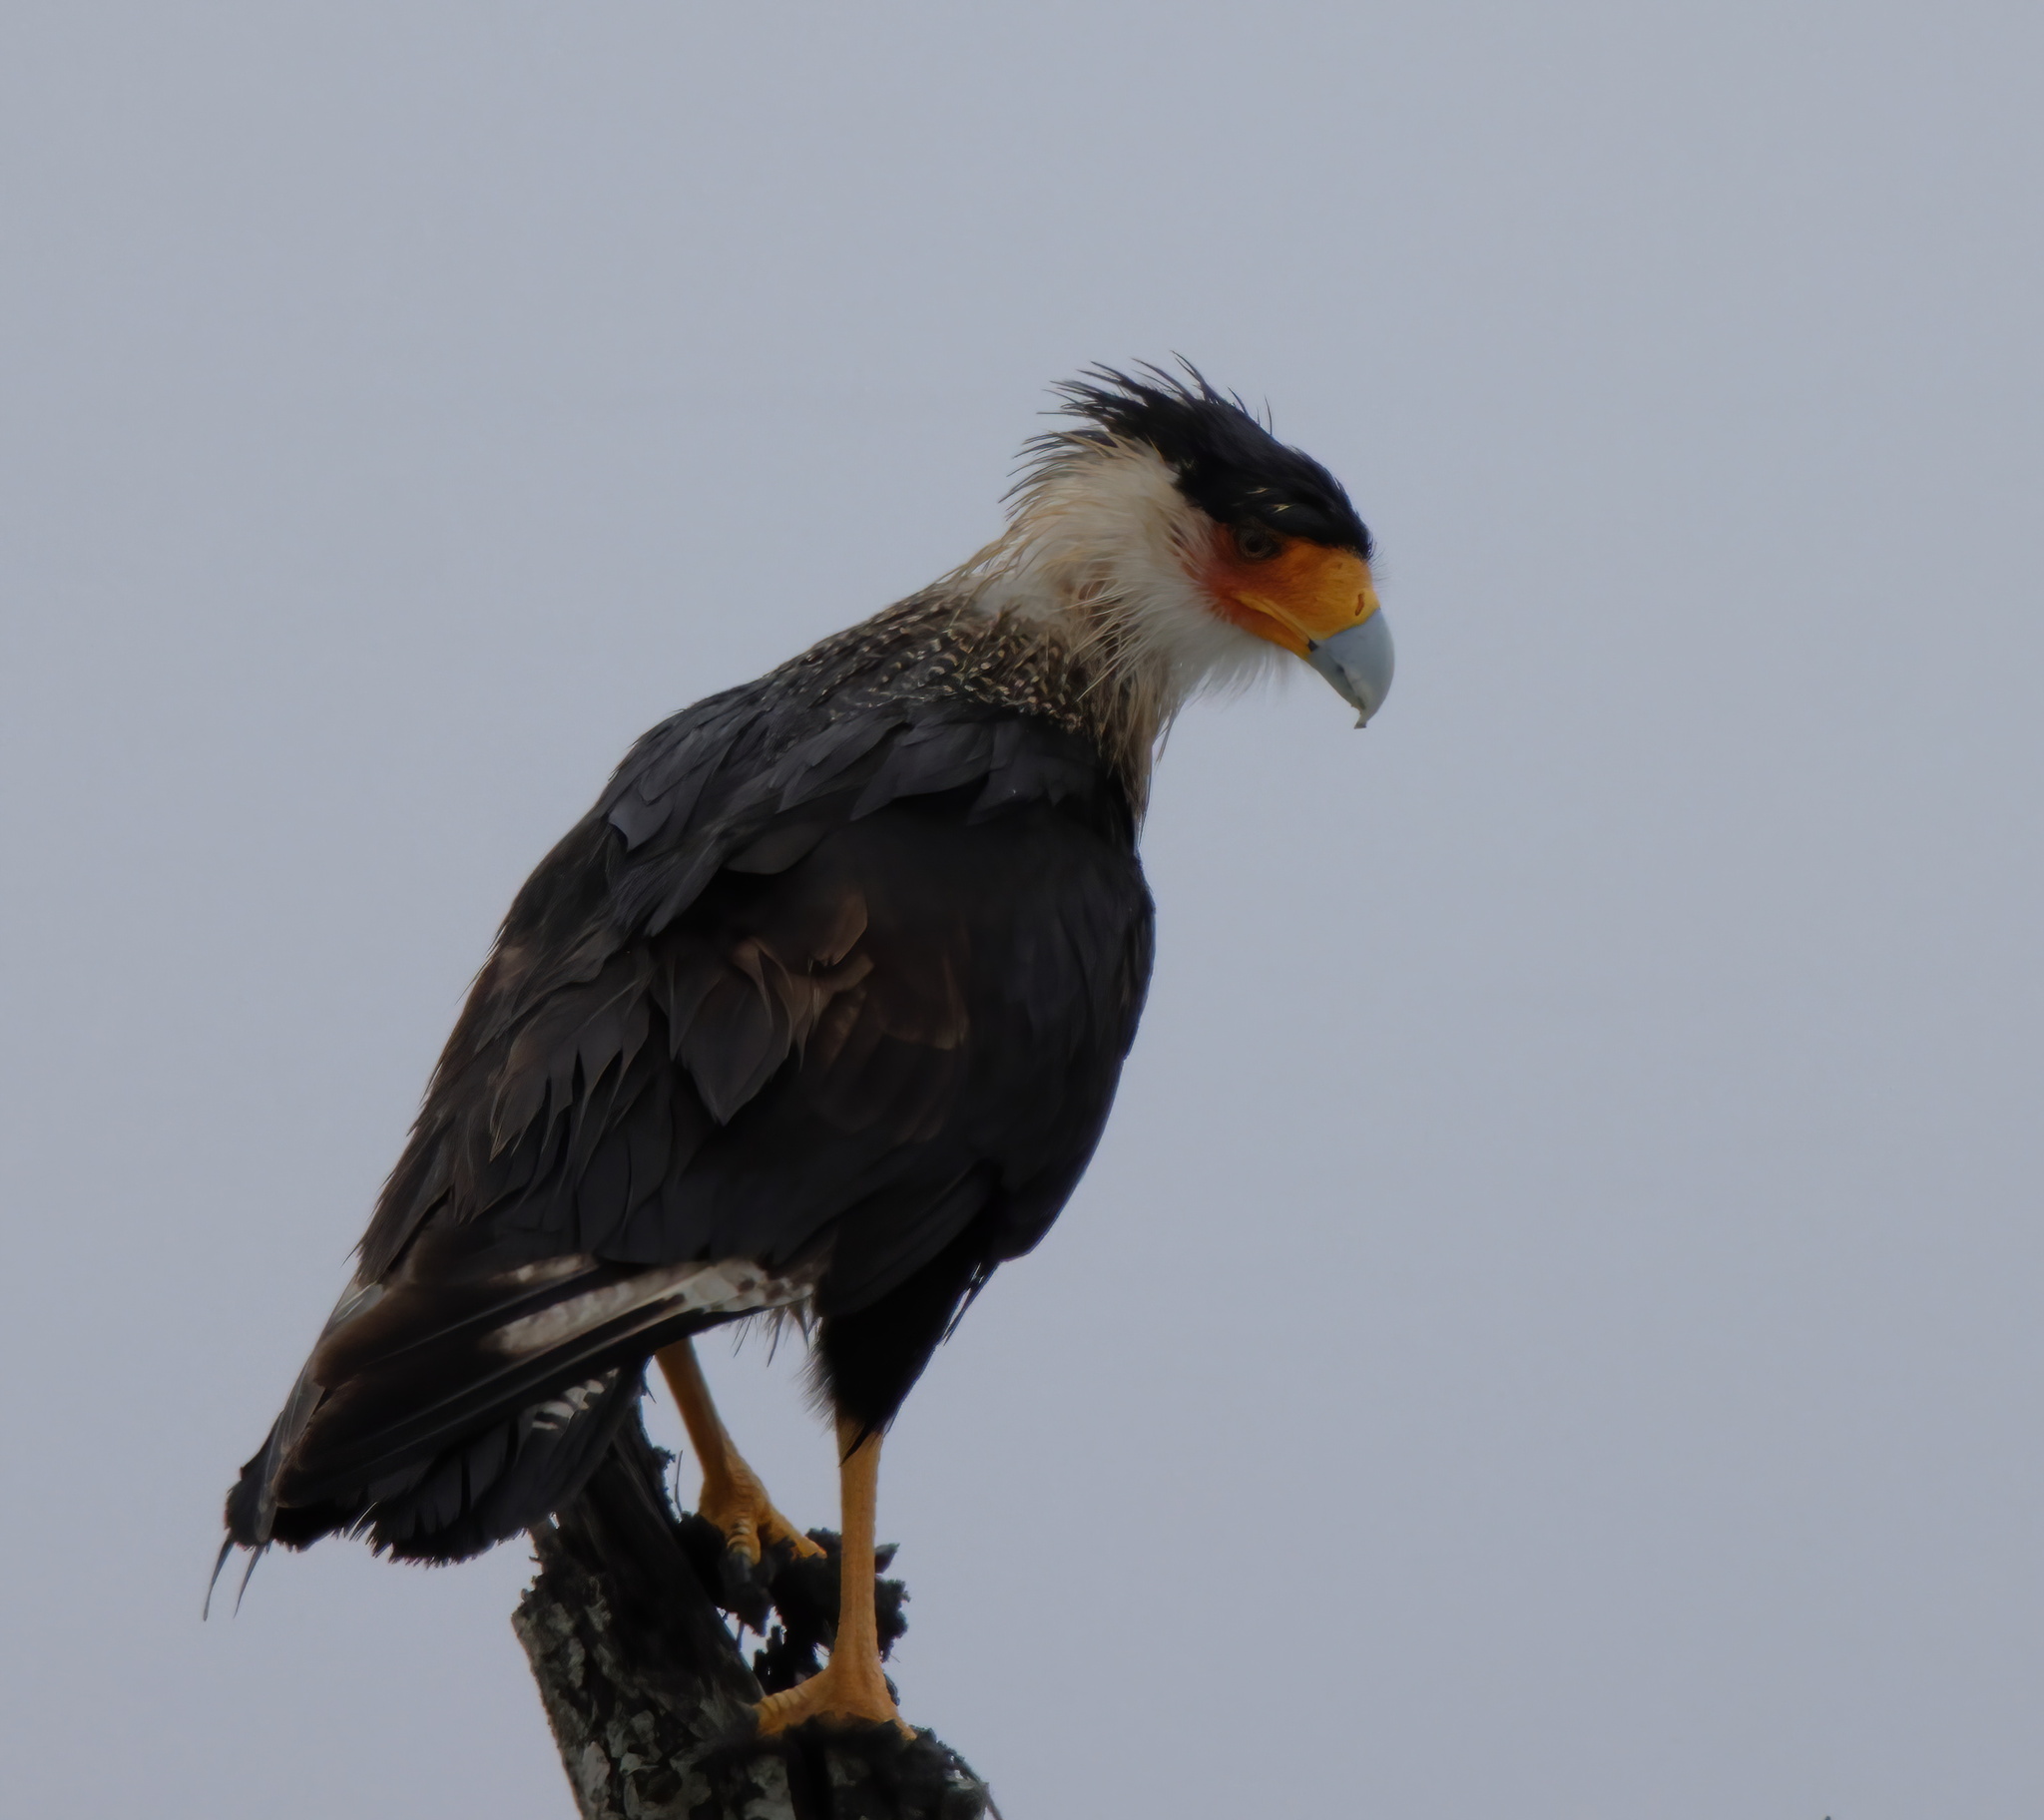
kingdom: Animalia
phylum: Chordata
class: Aves
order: Falconiformes
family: Falconidae
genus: Caracara
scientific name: Caracara plancus
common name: Southern caracara
